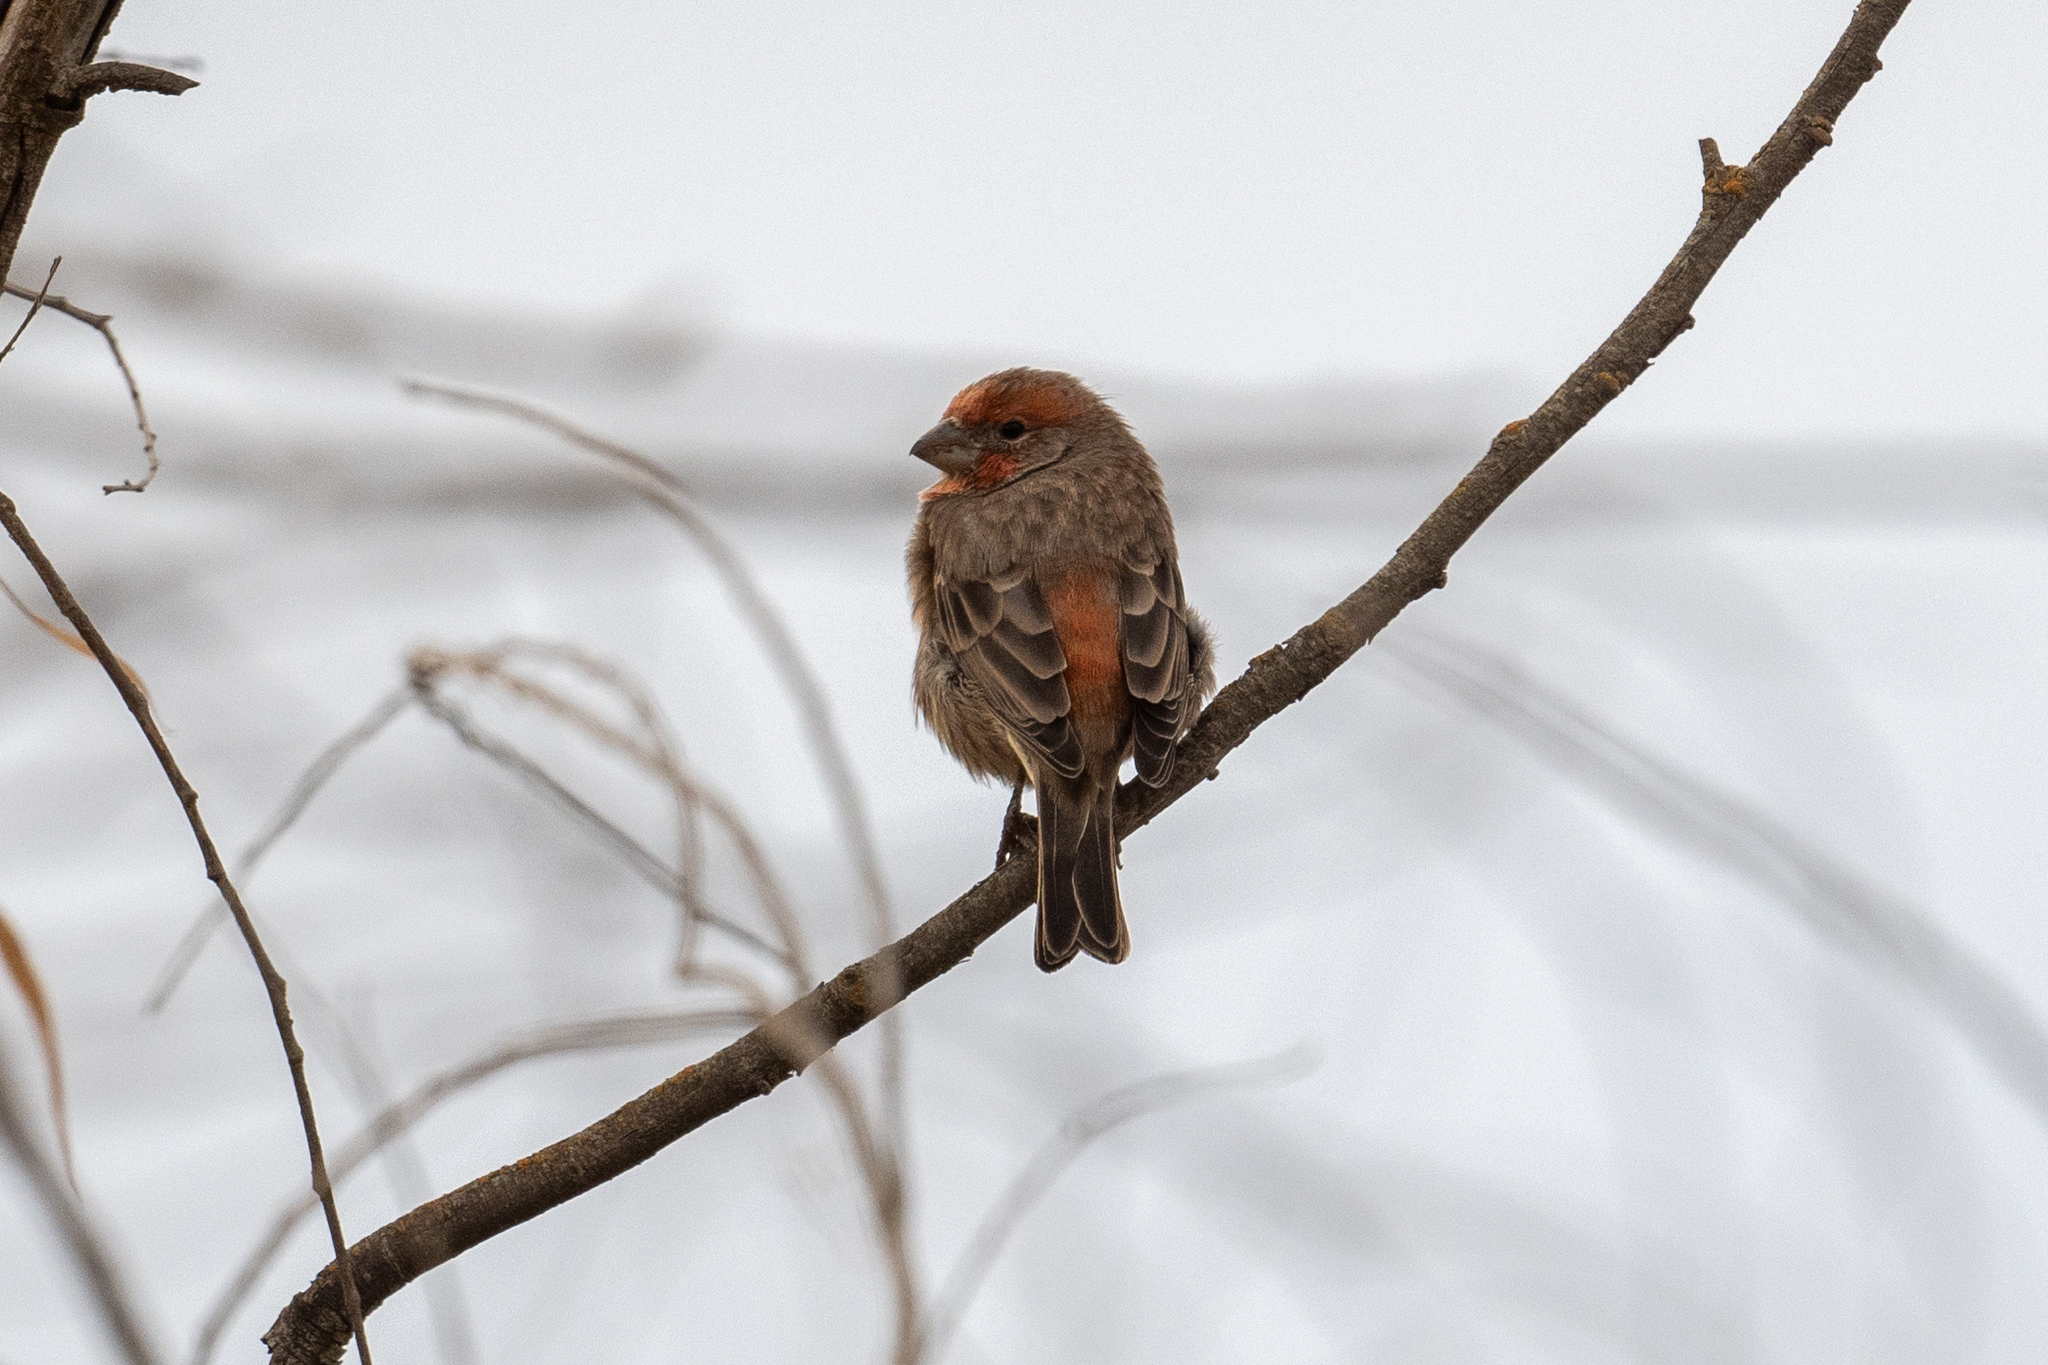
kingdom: Animalia
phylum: Chordata
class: Aves
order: Passeriformes
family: Fringillidae
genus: Haemorhous
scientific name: Haemorhous mexicanus
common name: House finch
